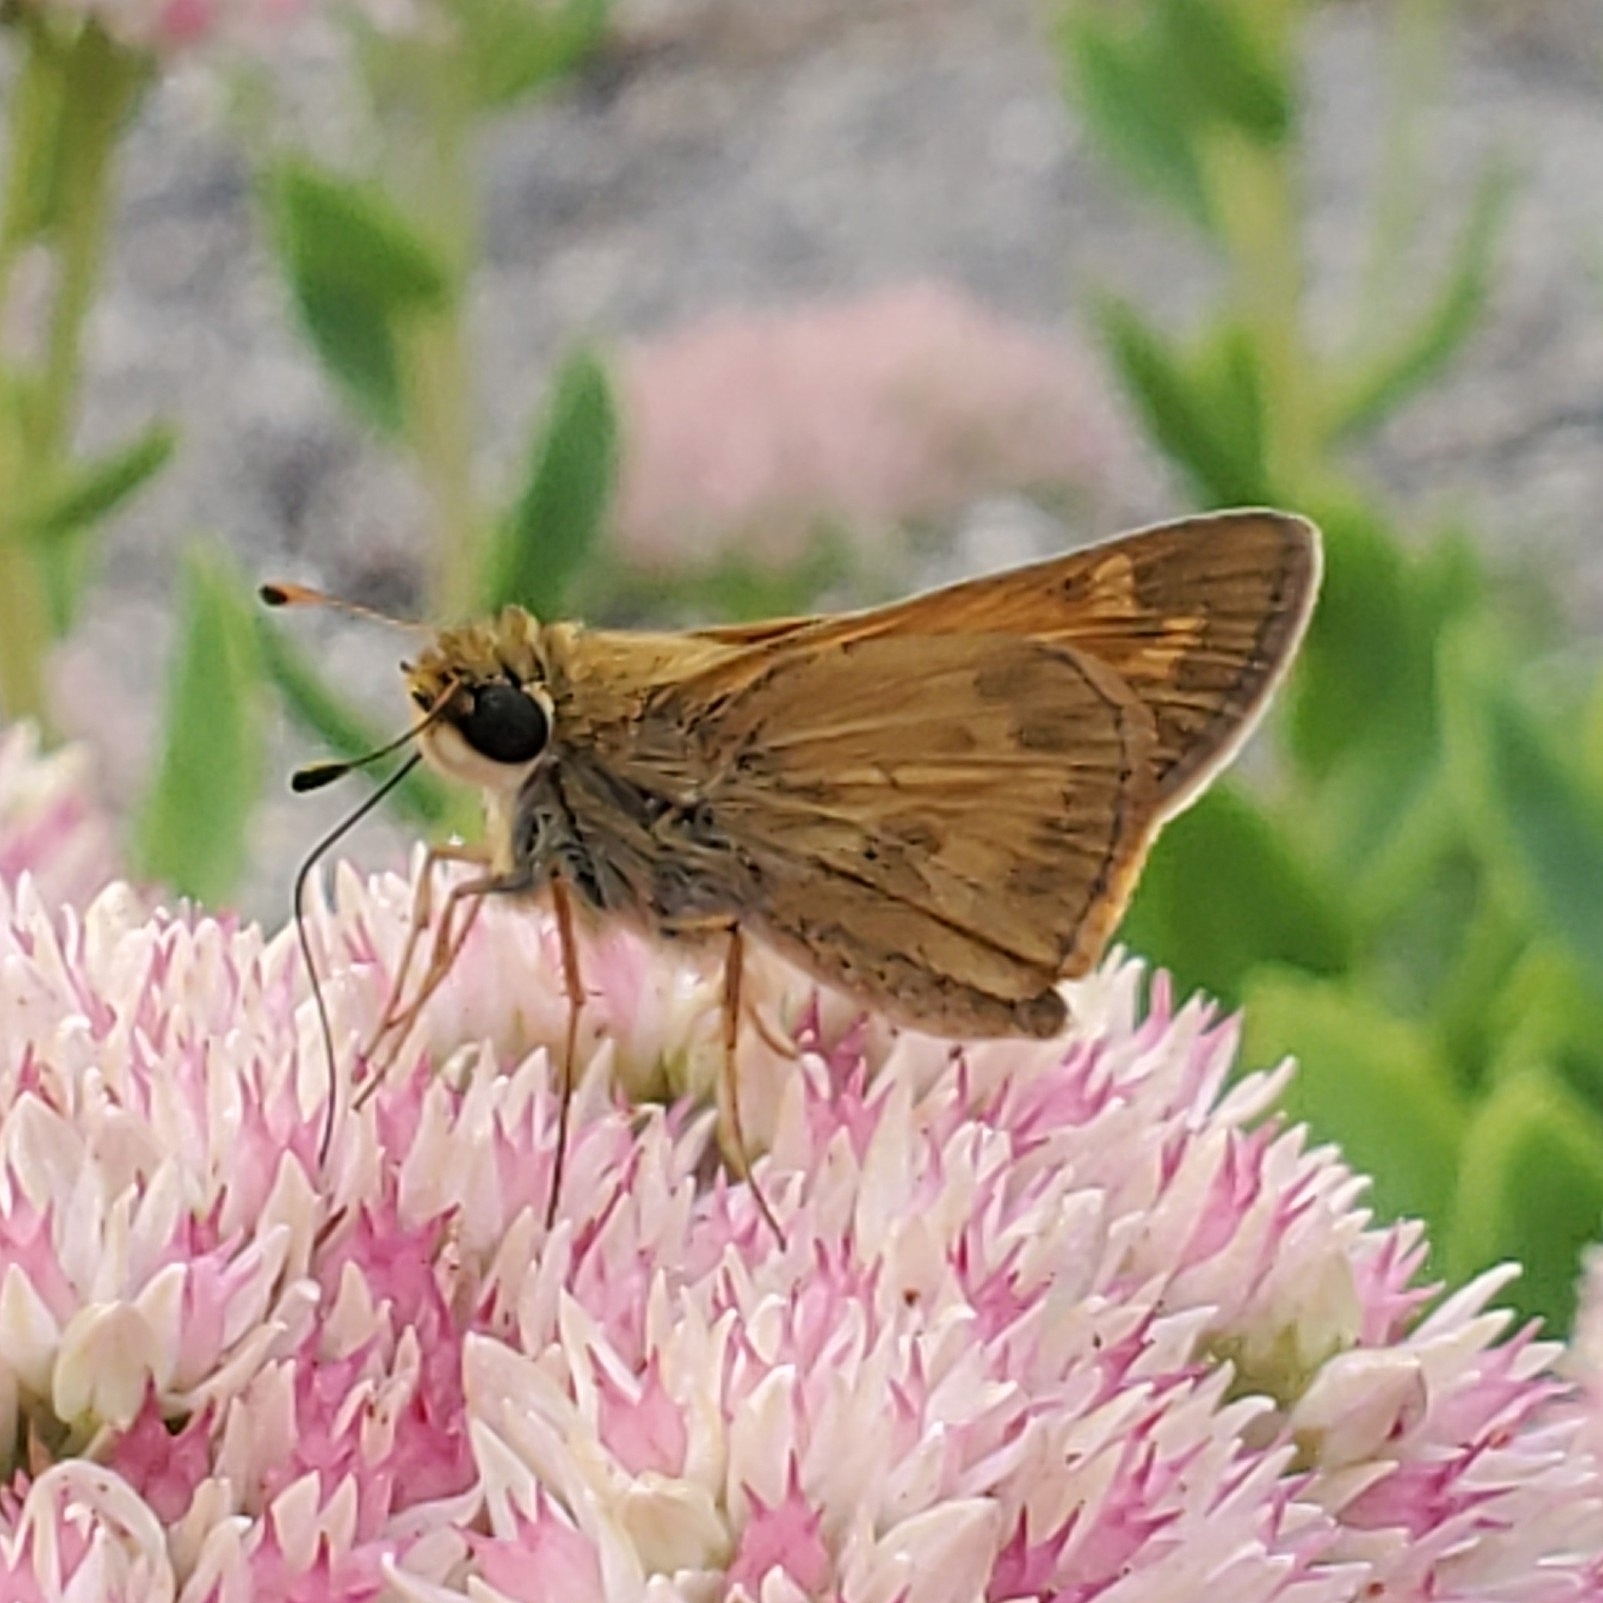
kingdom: Animalia
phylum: Arthropoda
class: Insecta
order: Lepidoptera
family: Hesperiidae
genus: Atalopedes
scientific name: Atalopedes
